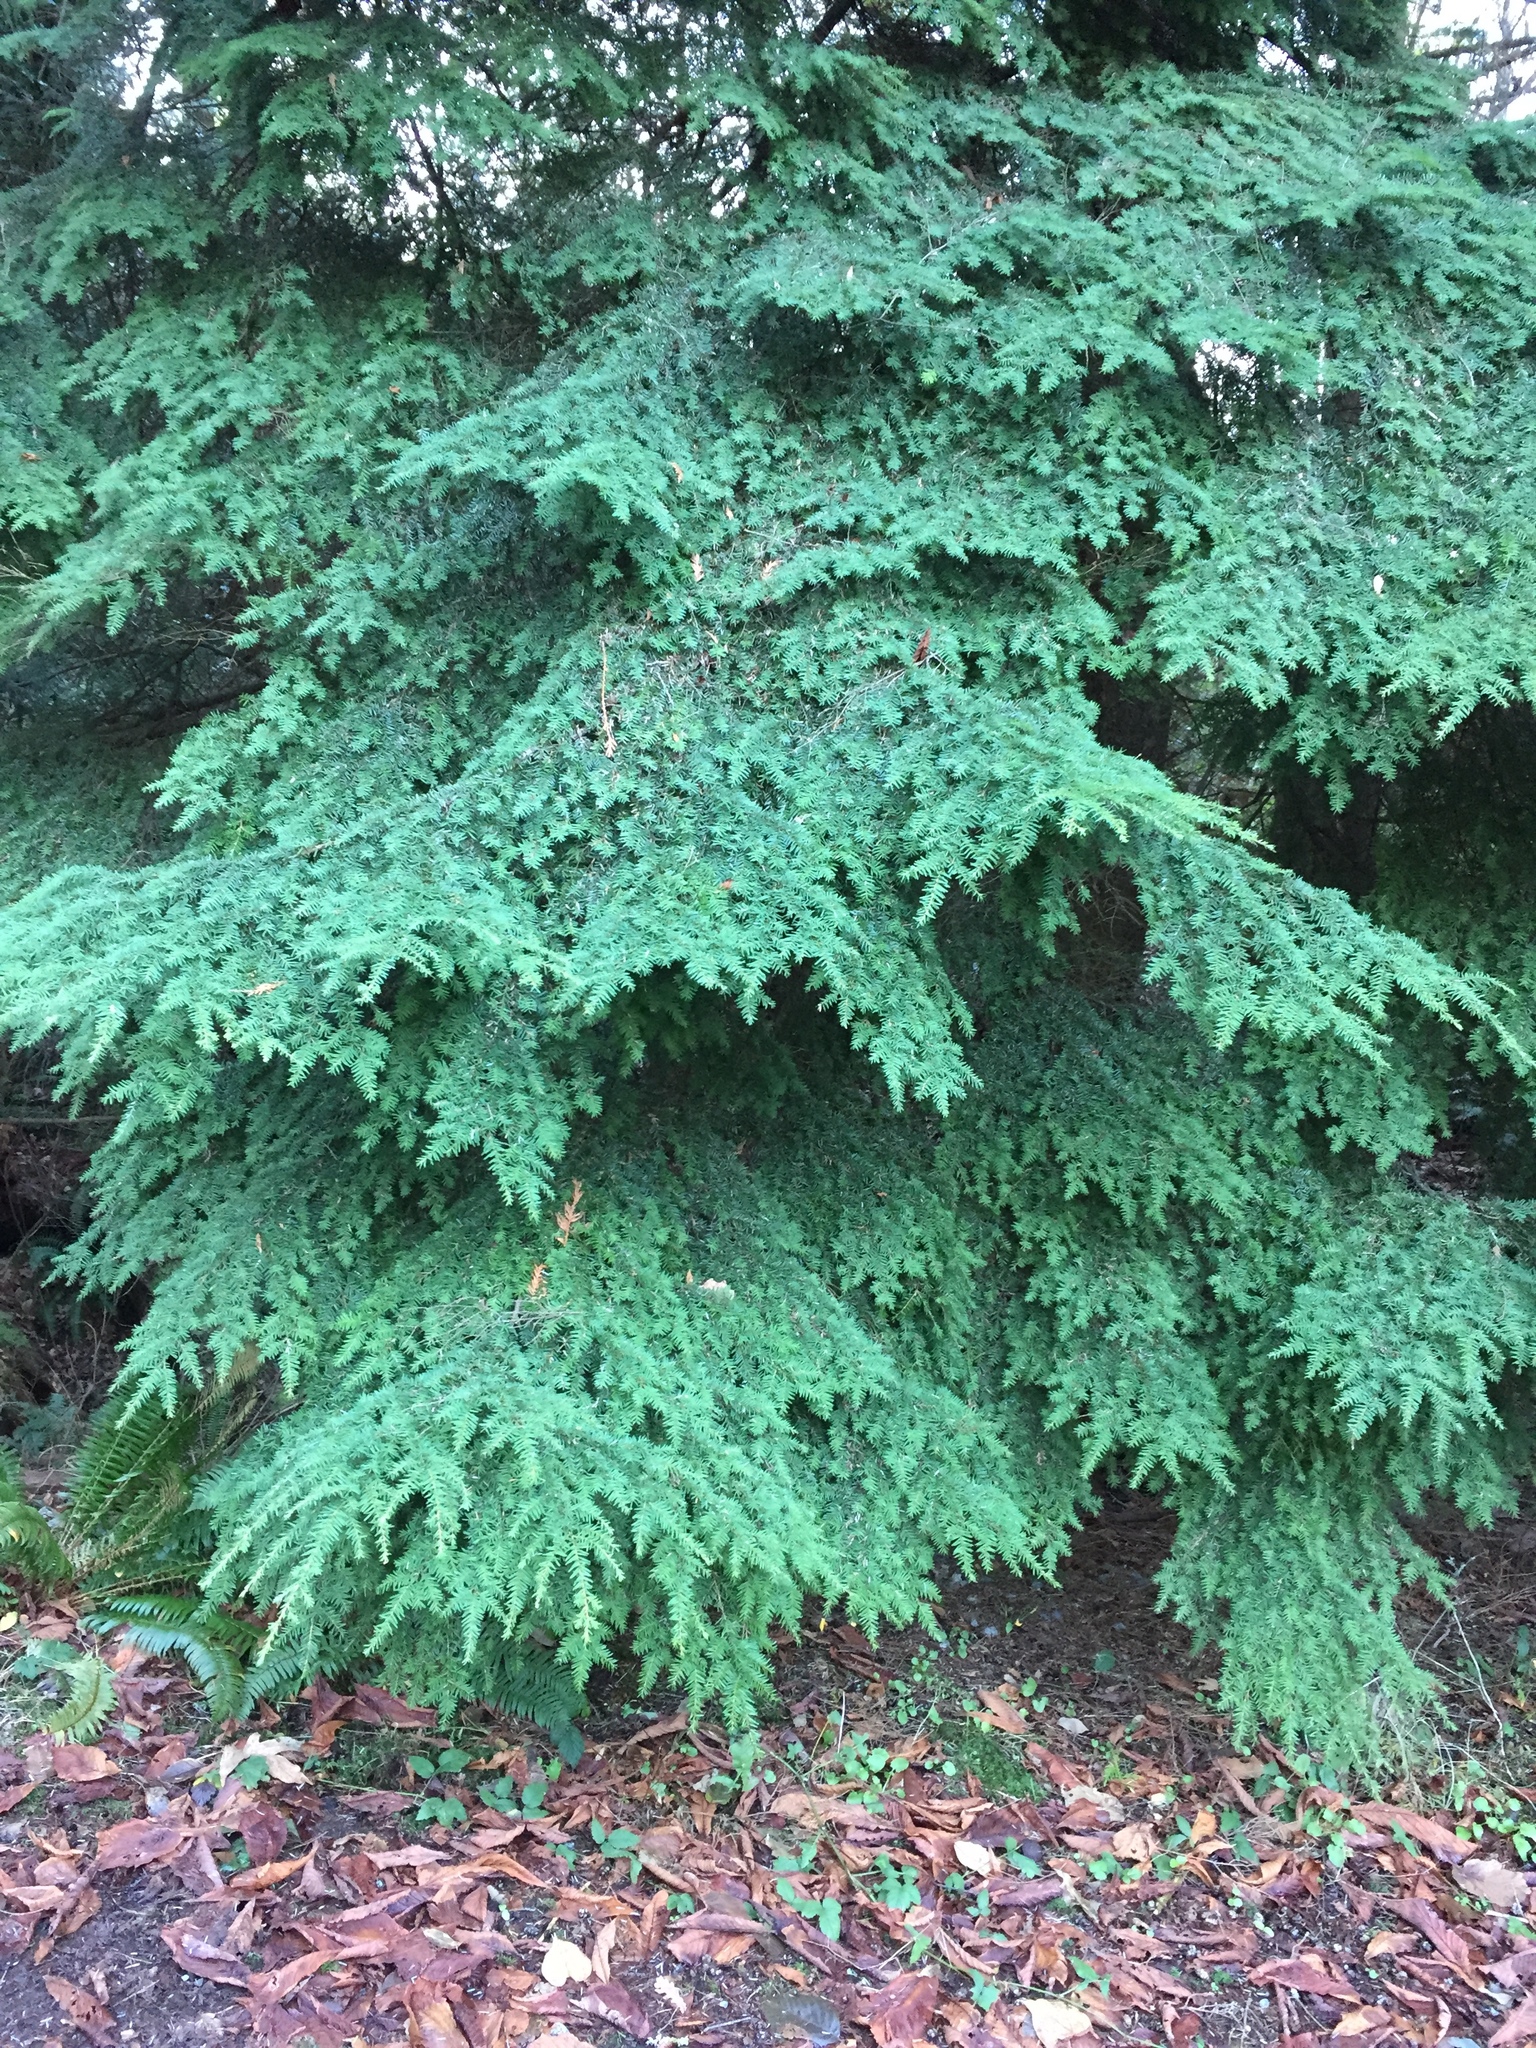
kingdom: Plantae
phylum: Tracheophyta
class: Pinopsida
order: Pinales
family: Pinaceae
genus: Tsuga
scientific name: Tsuga heterophylla
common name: Western hemlock
